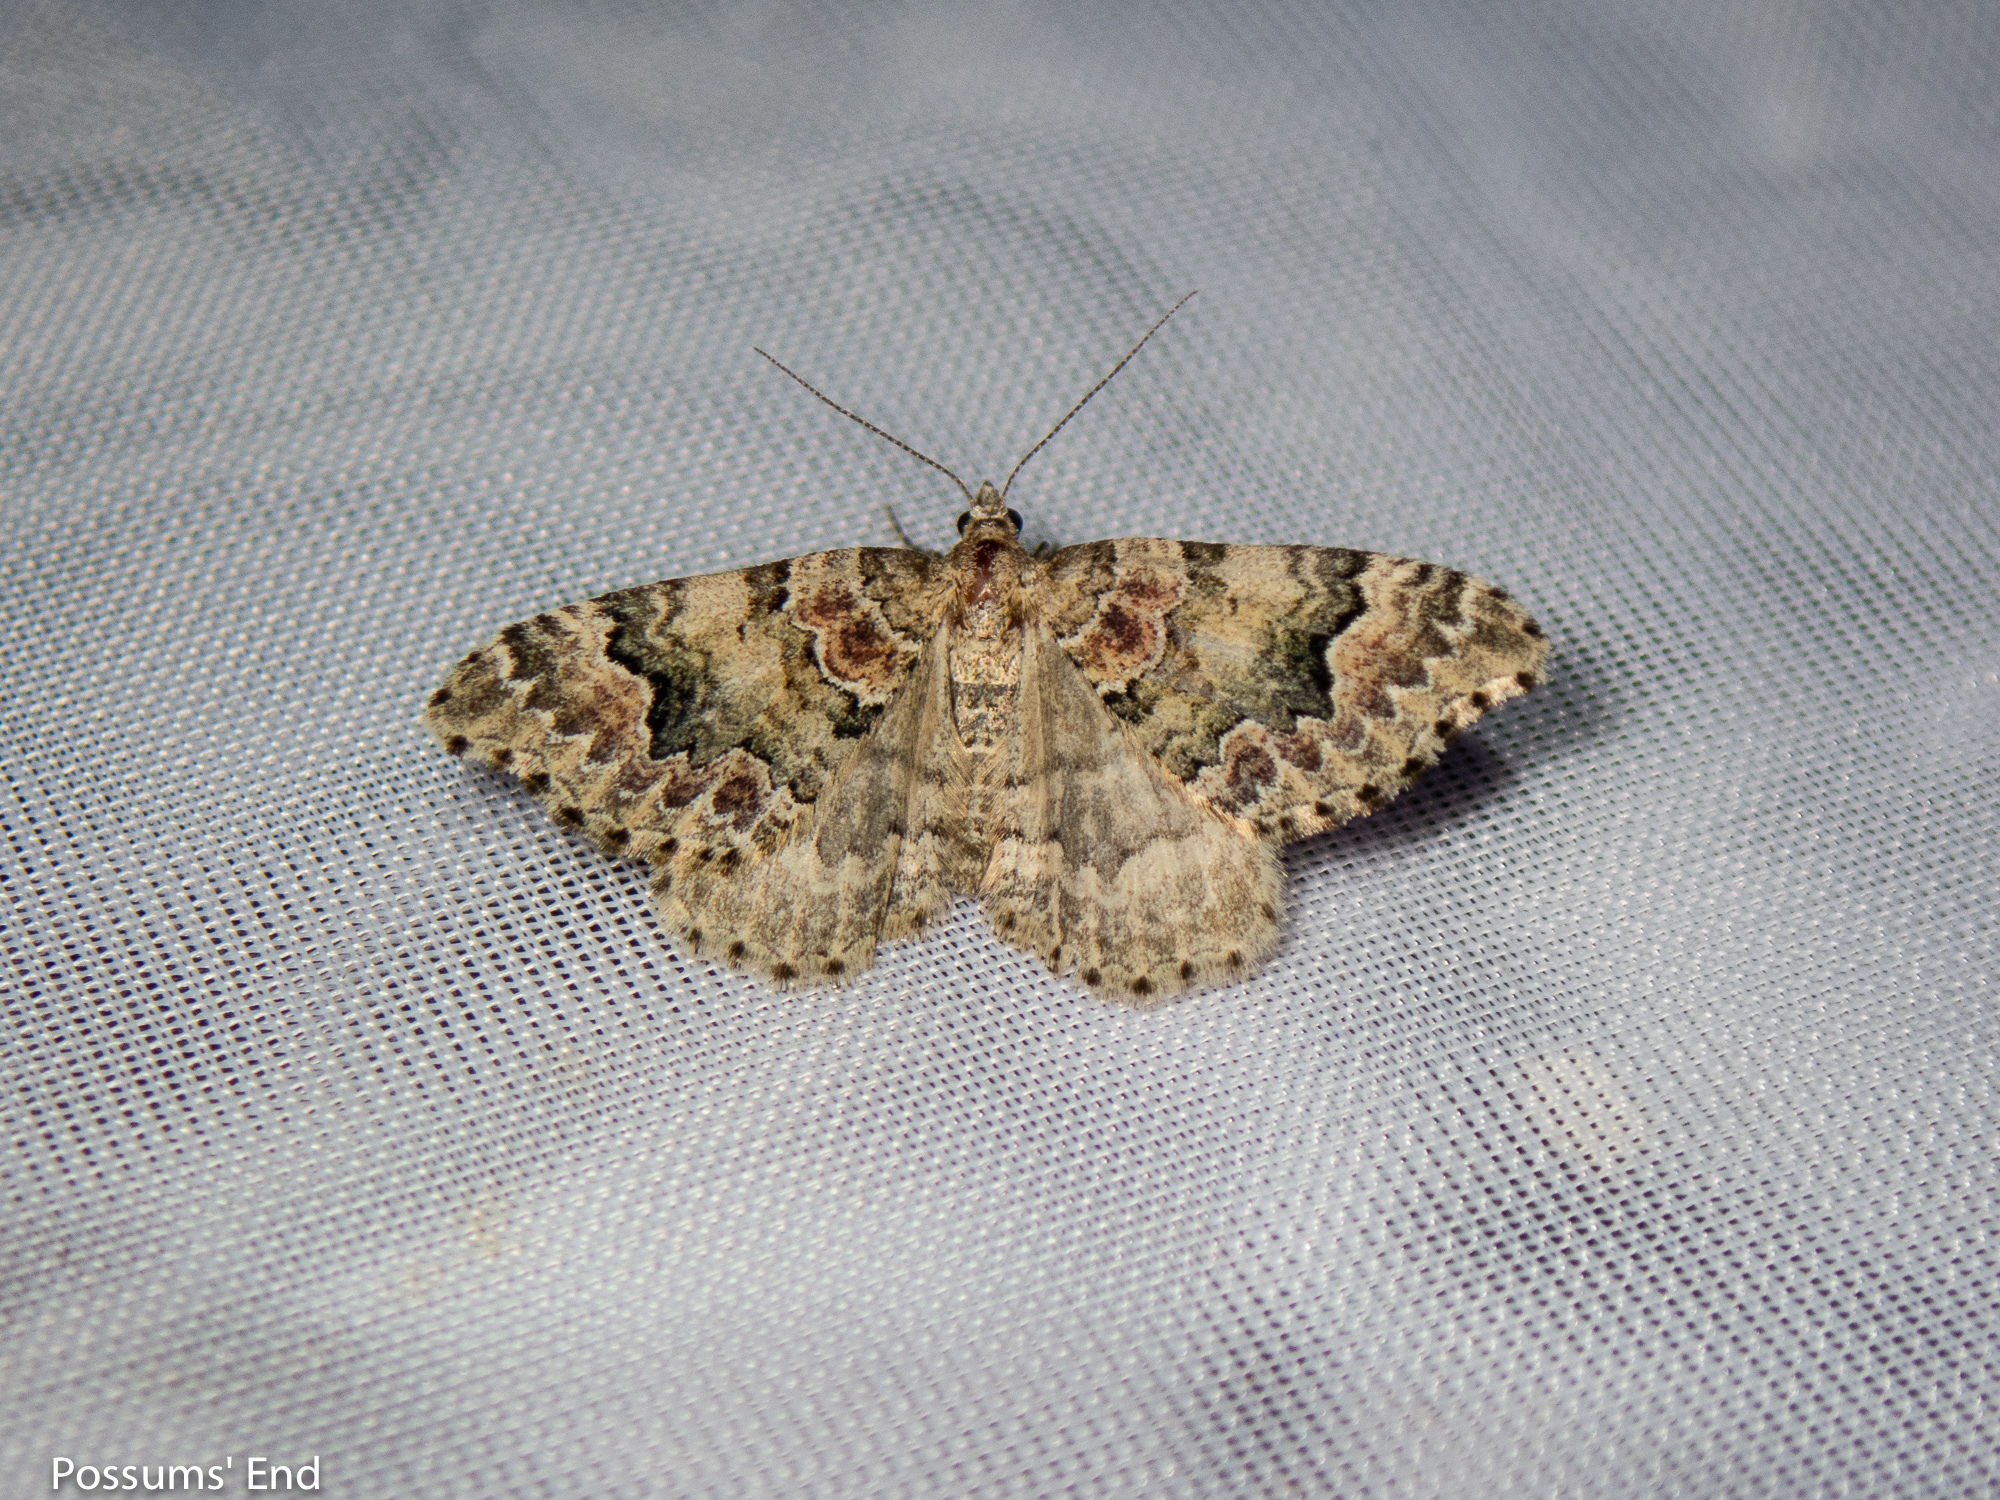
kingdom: Animalia
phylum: Arthropoda
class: Insecta
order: Lepidoptera
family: Geometridae
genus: Helastia
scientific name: Helastia cryptica
